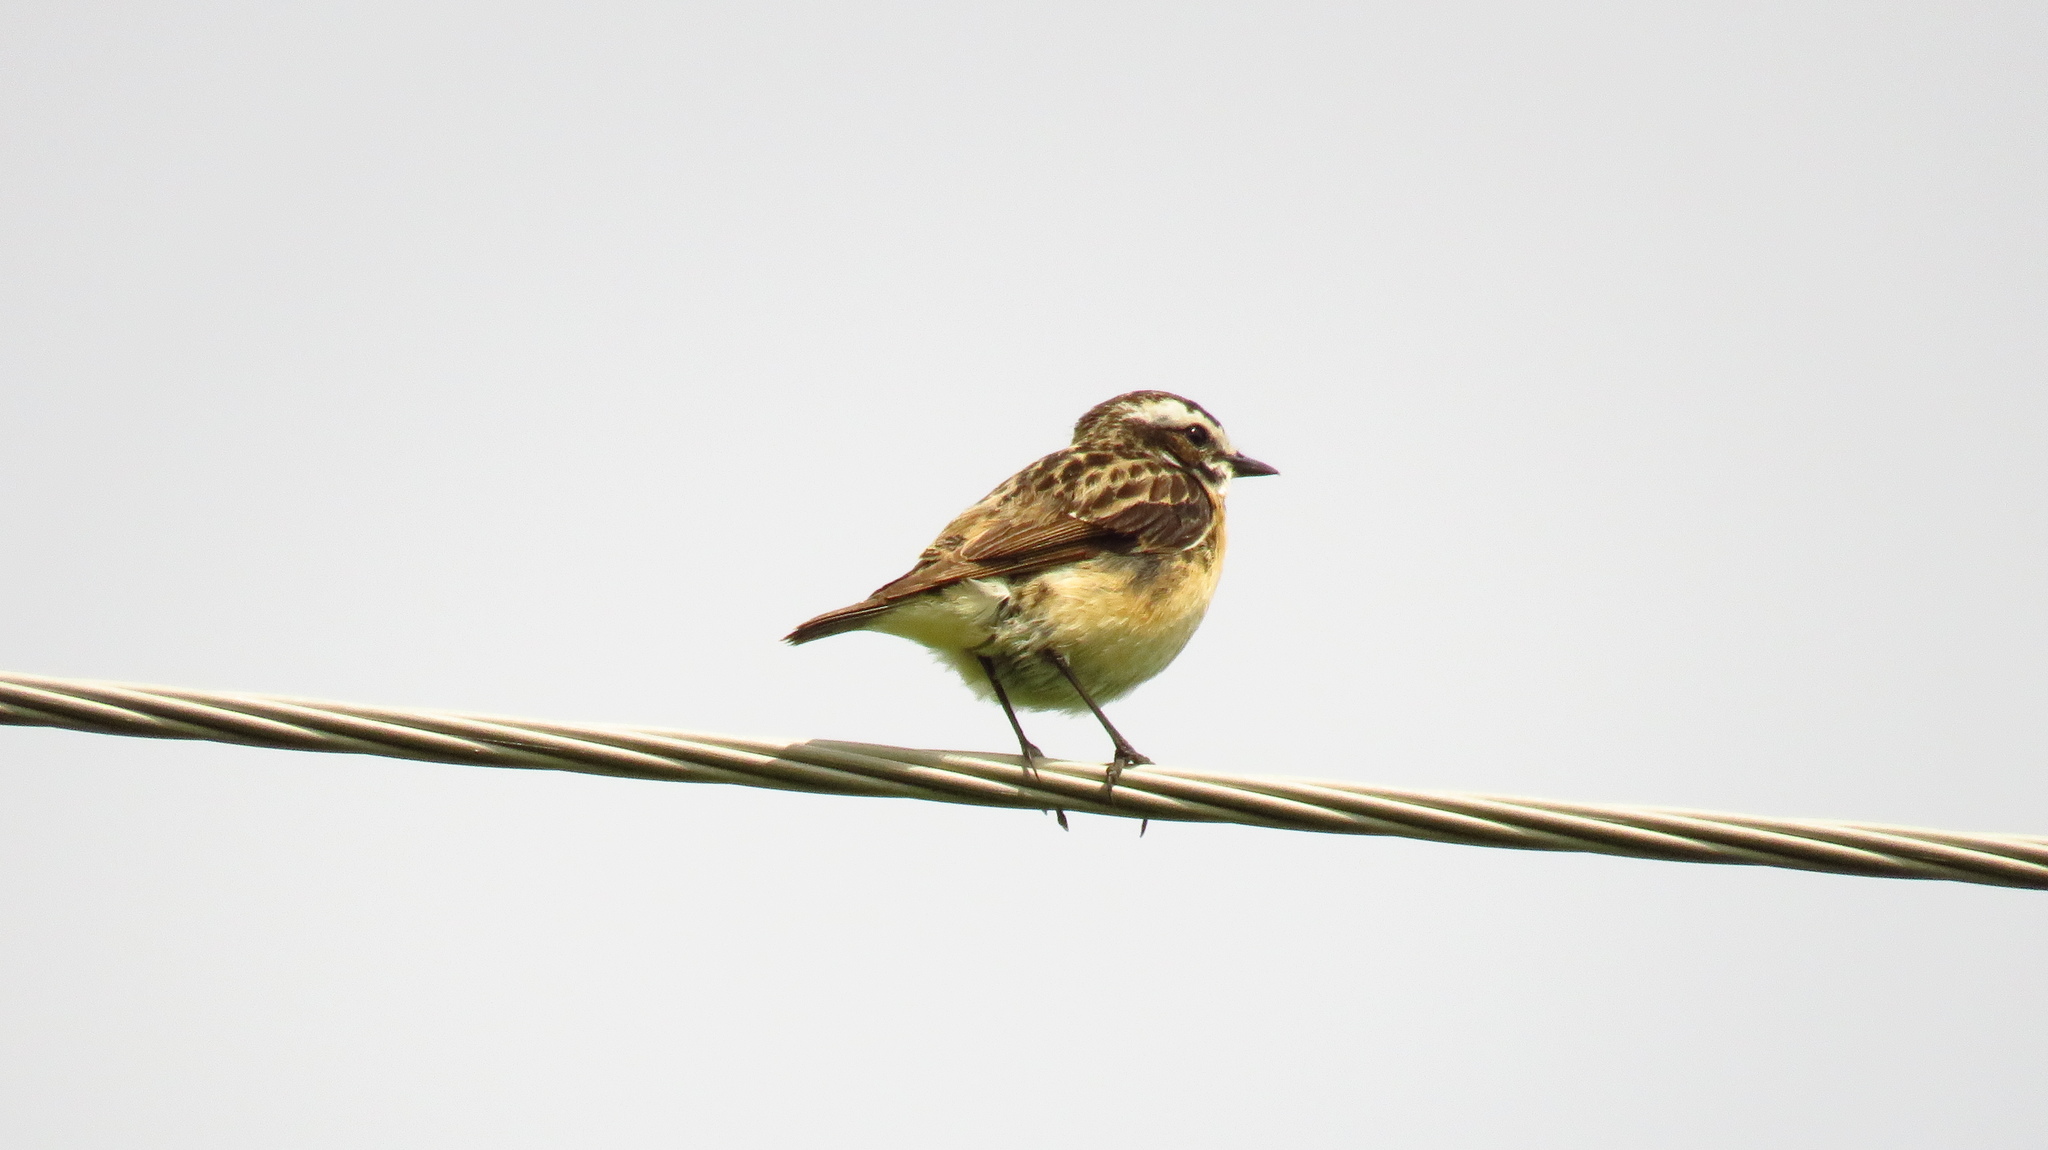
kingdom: Animalia
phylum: Chordata
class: Aves
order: Passeriformes
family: Muscicapidae
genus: Saxicola
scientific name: Saxicola rubetra
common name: Whinchat
